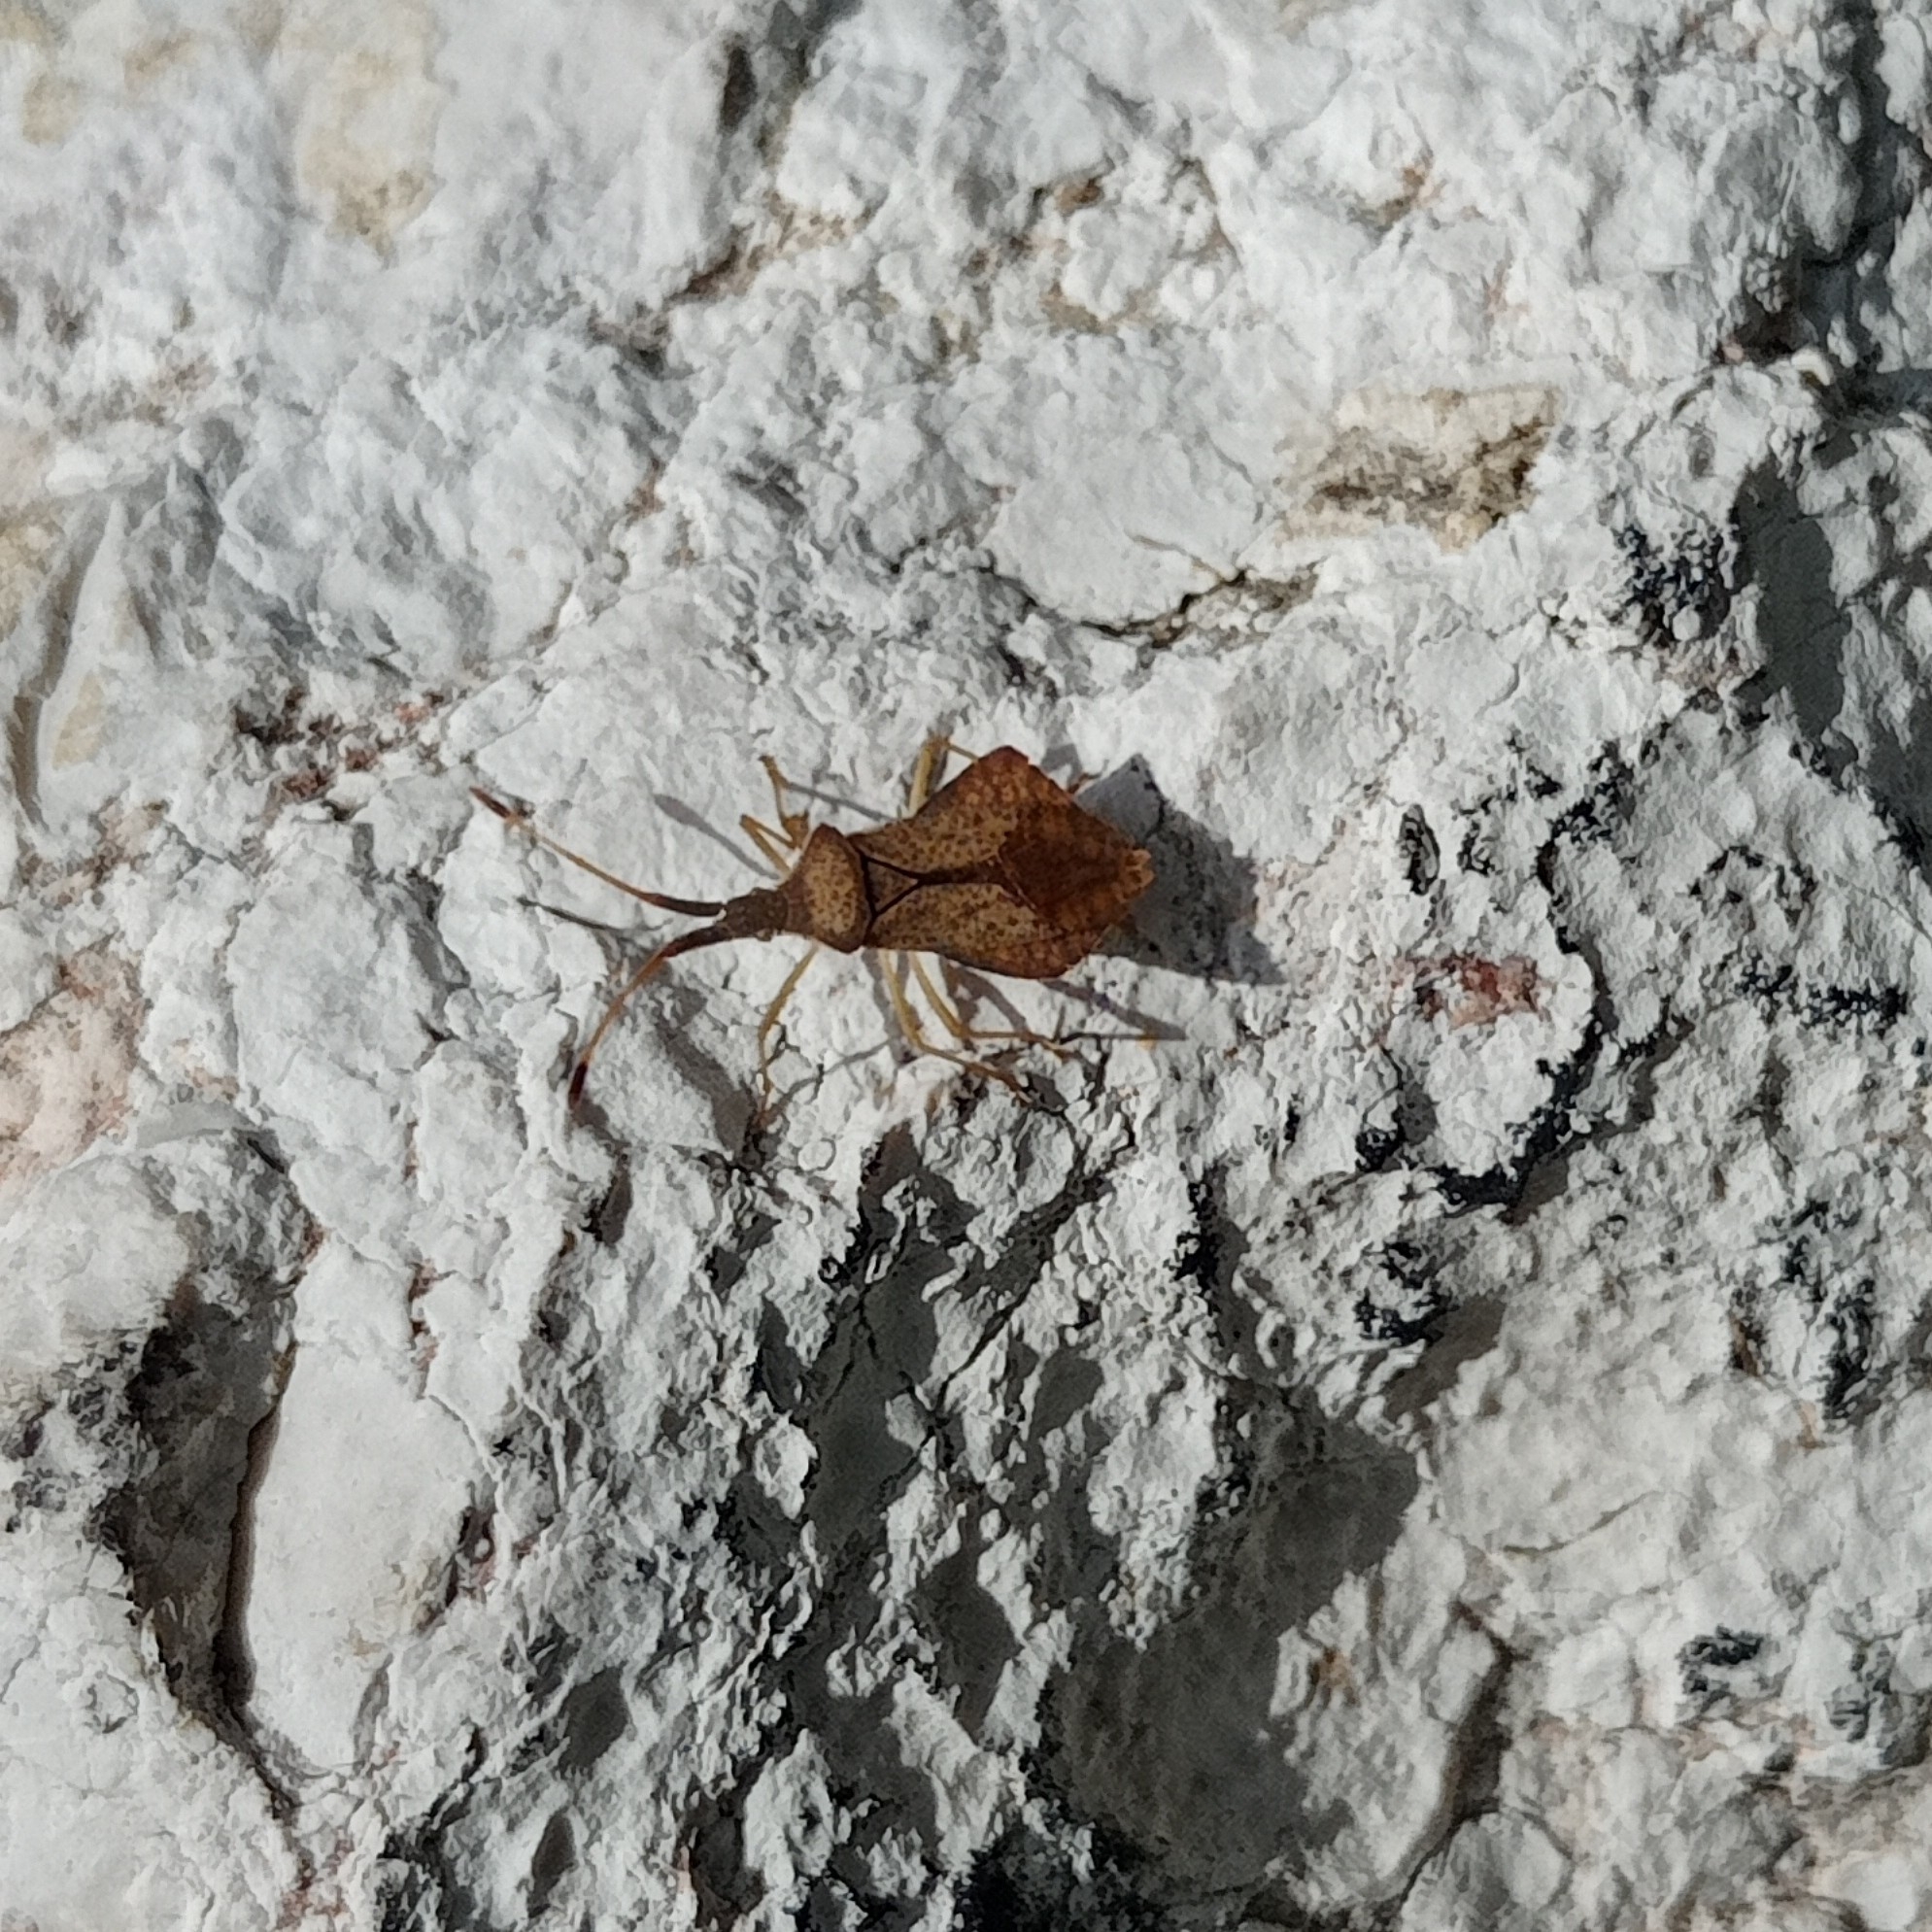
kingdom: Animalia
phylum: Arthropoda
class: Insecta
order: Hemiptera
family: Coreidae
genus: Syromastus
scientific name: Syromastus rhombeus
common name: Rhombic leatherbug
